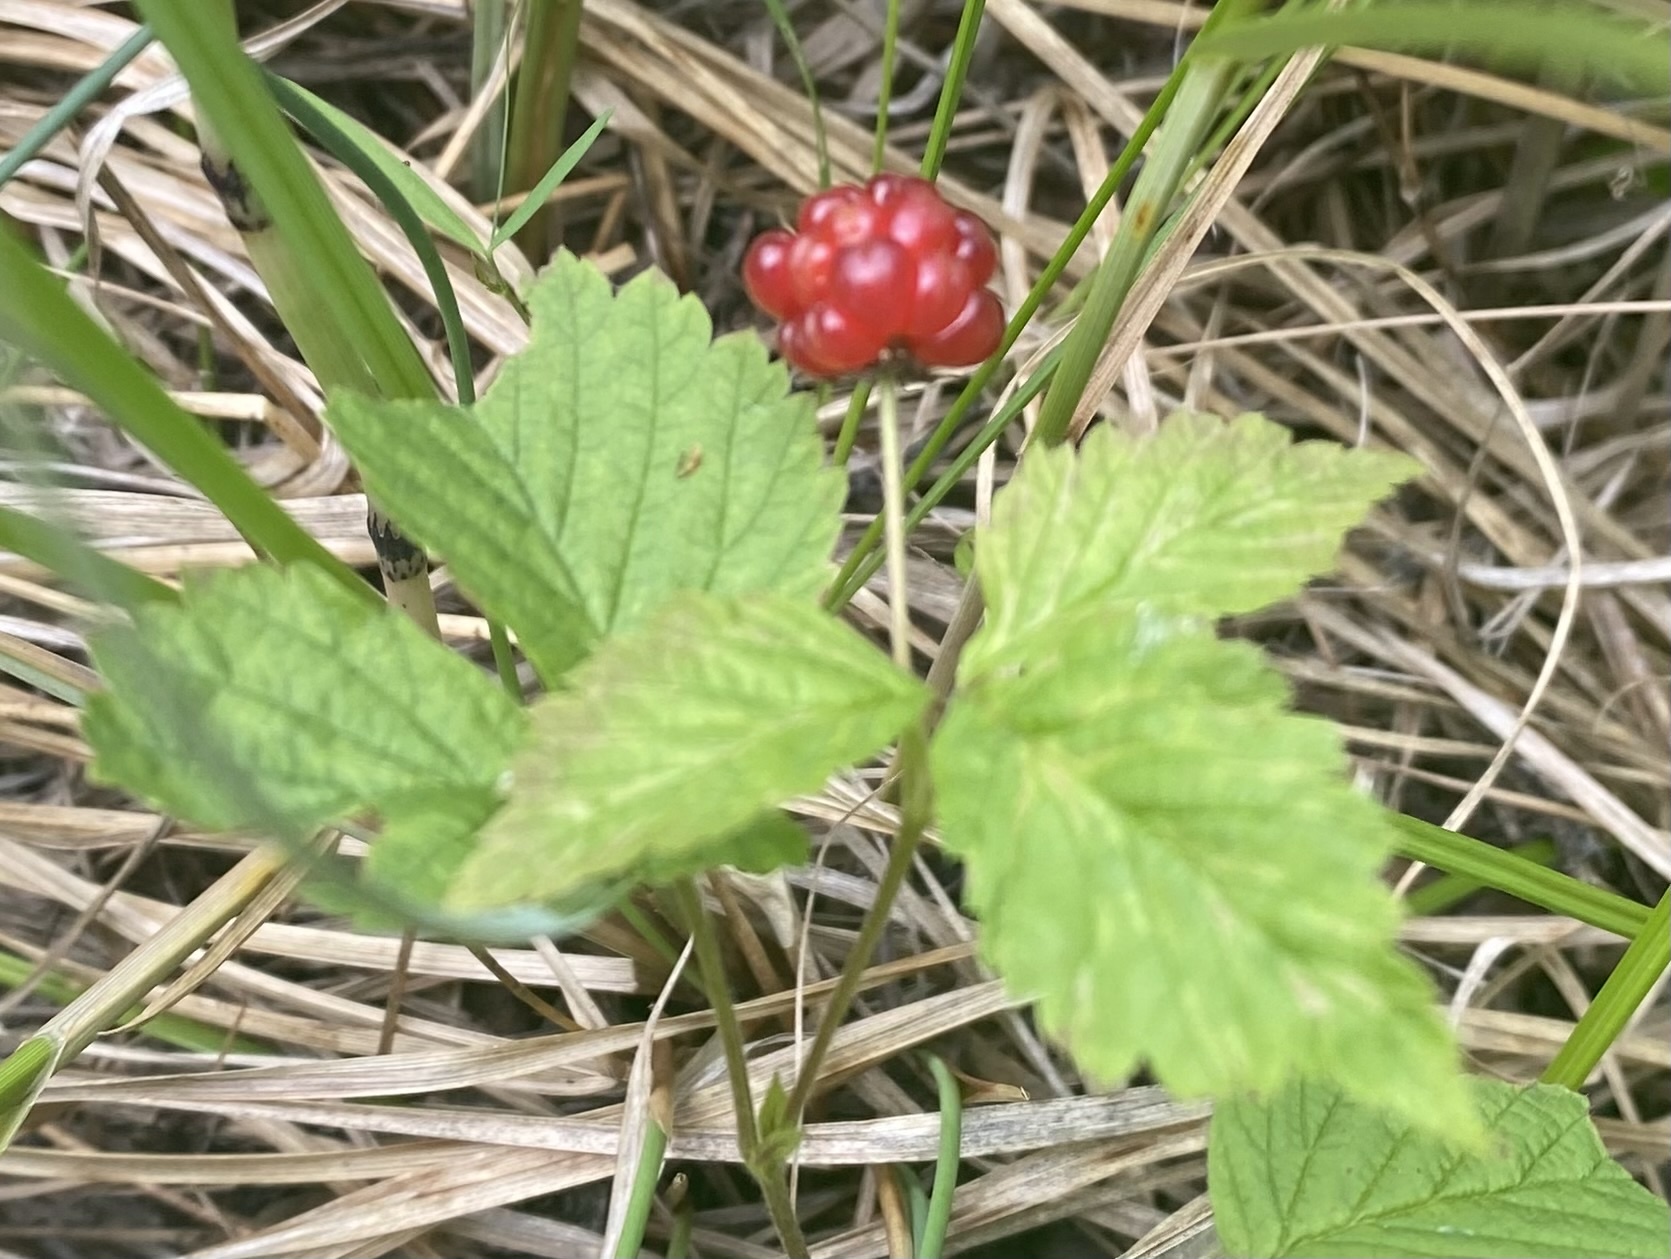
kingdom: Plantae
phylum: Tracheophyta
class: Magnoliopsida
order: Rosales
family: Rosaceae
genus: Rubus
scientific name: Rubus pubescens
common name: Dwarf raspberry
